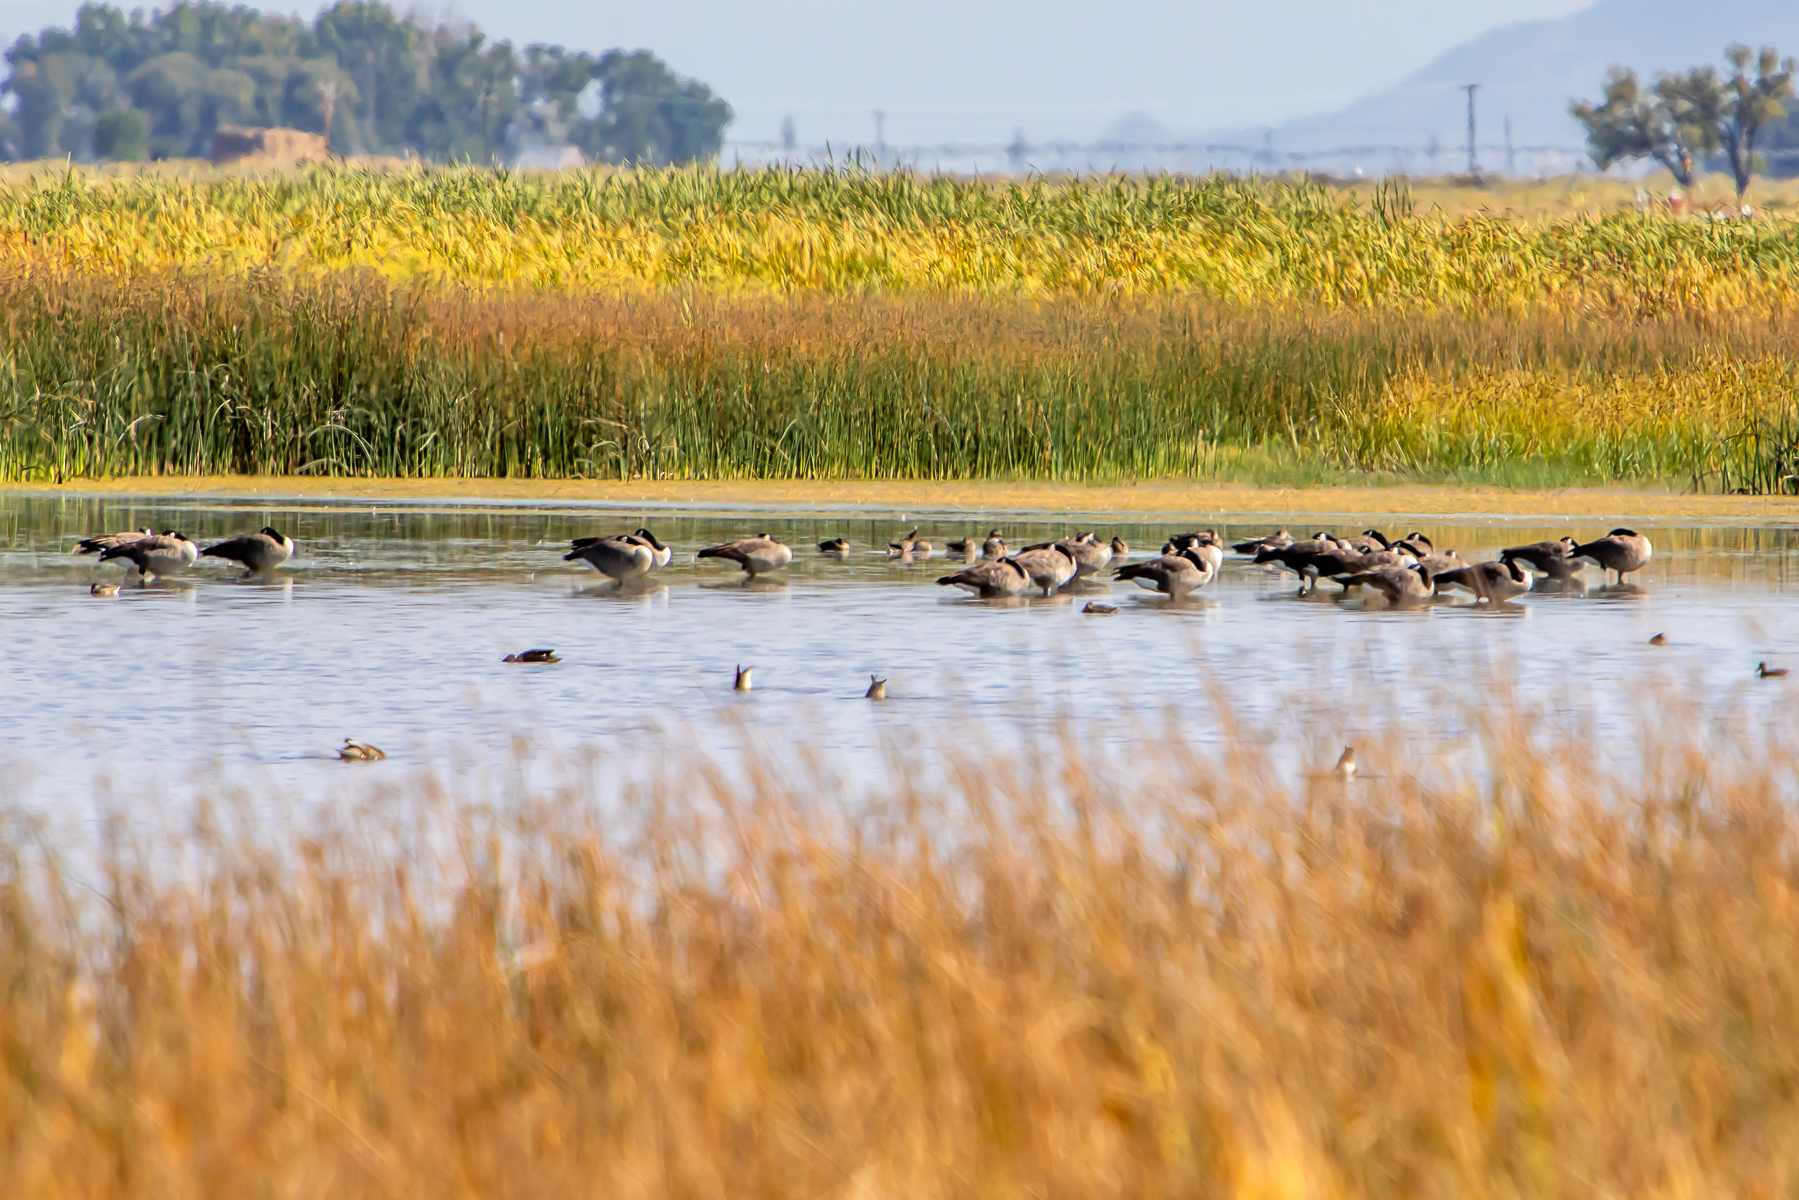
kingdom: Animalia
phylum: Chordata
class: Aves
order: Anseriformes
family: Anatidae
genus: Branta
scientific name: Branta canadensis
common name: Canada goose
